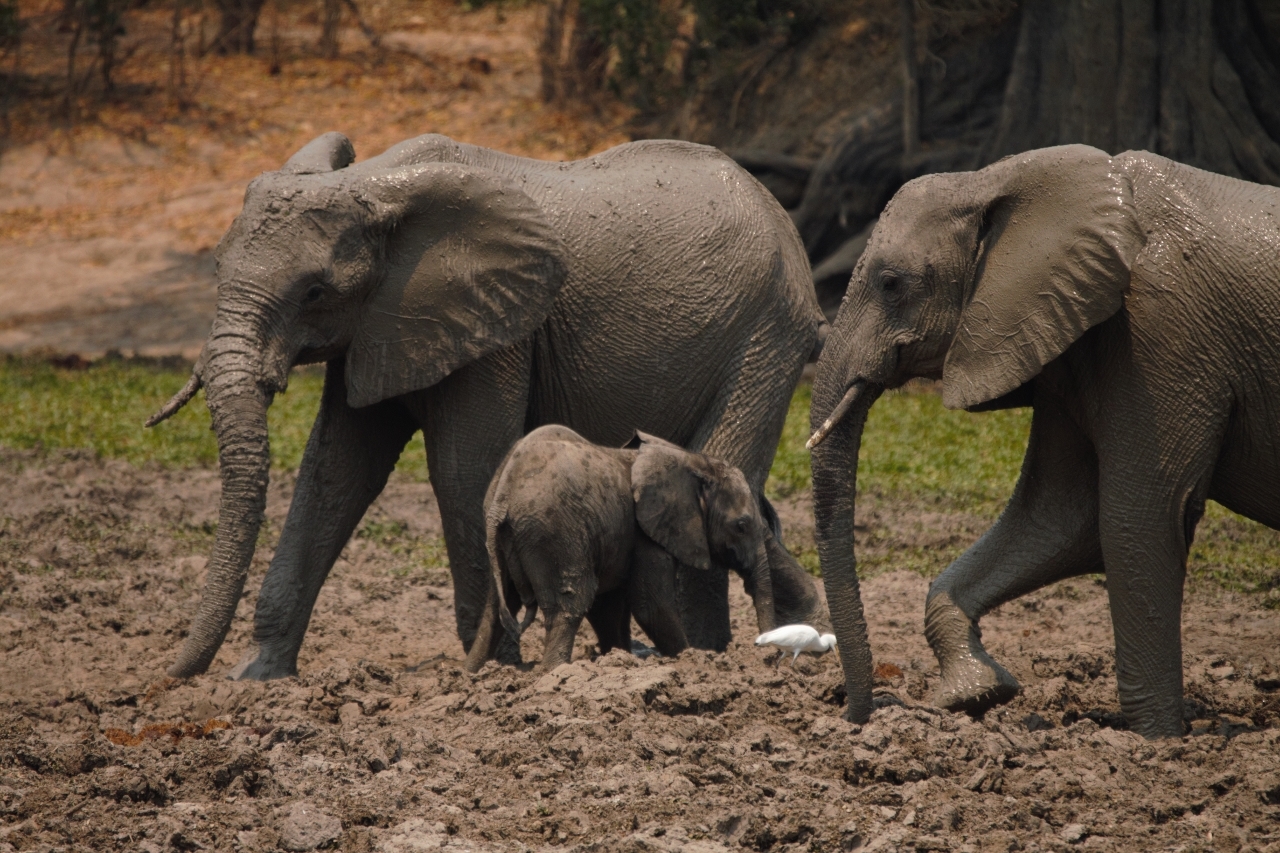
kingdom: Animalia
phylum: Chordata
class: Mammalia
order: Proboscidea
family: Elephantidae
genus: Loxodonta
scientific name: Loxodonta africana
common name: African elephant
